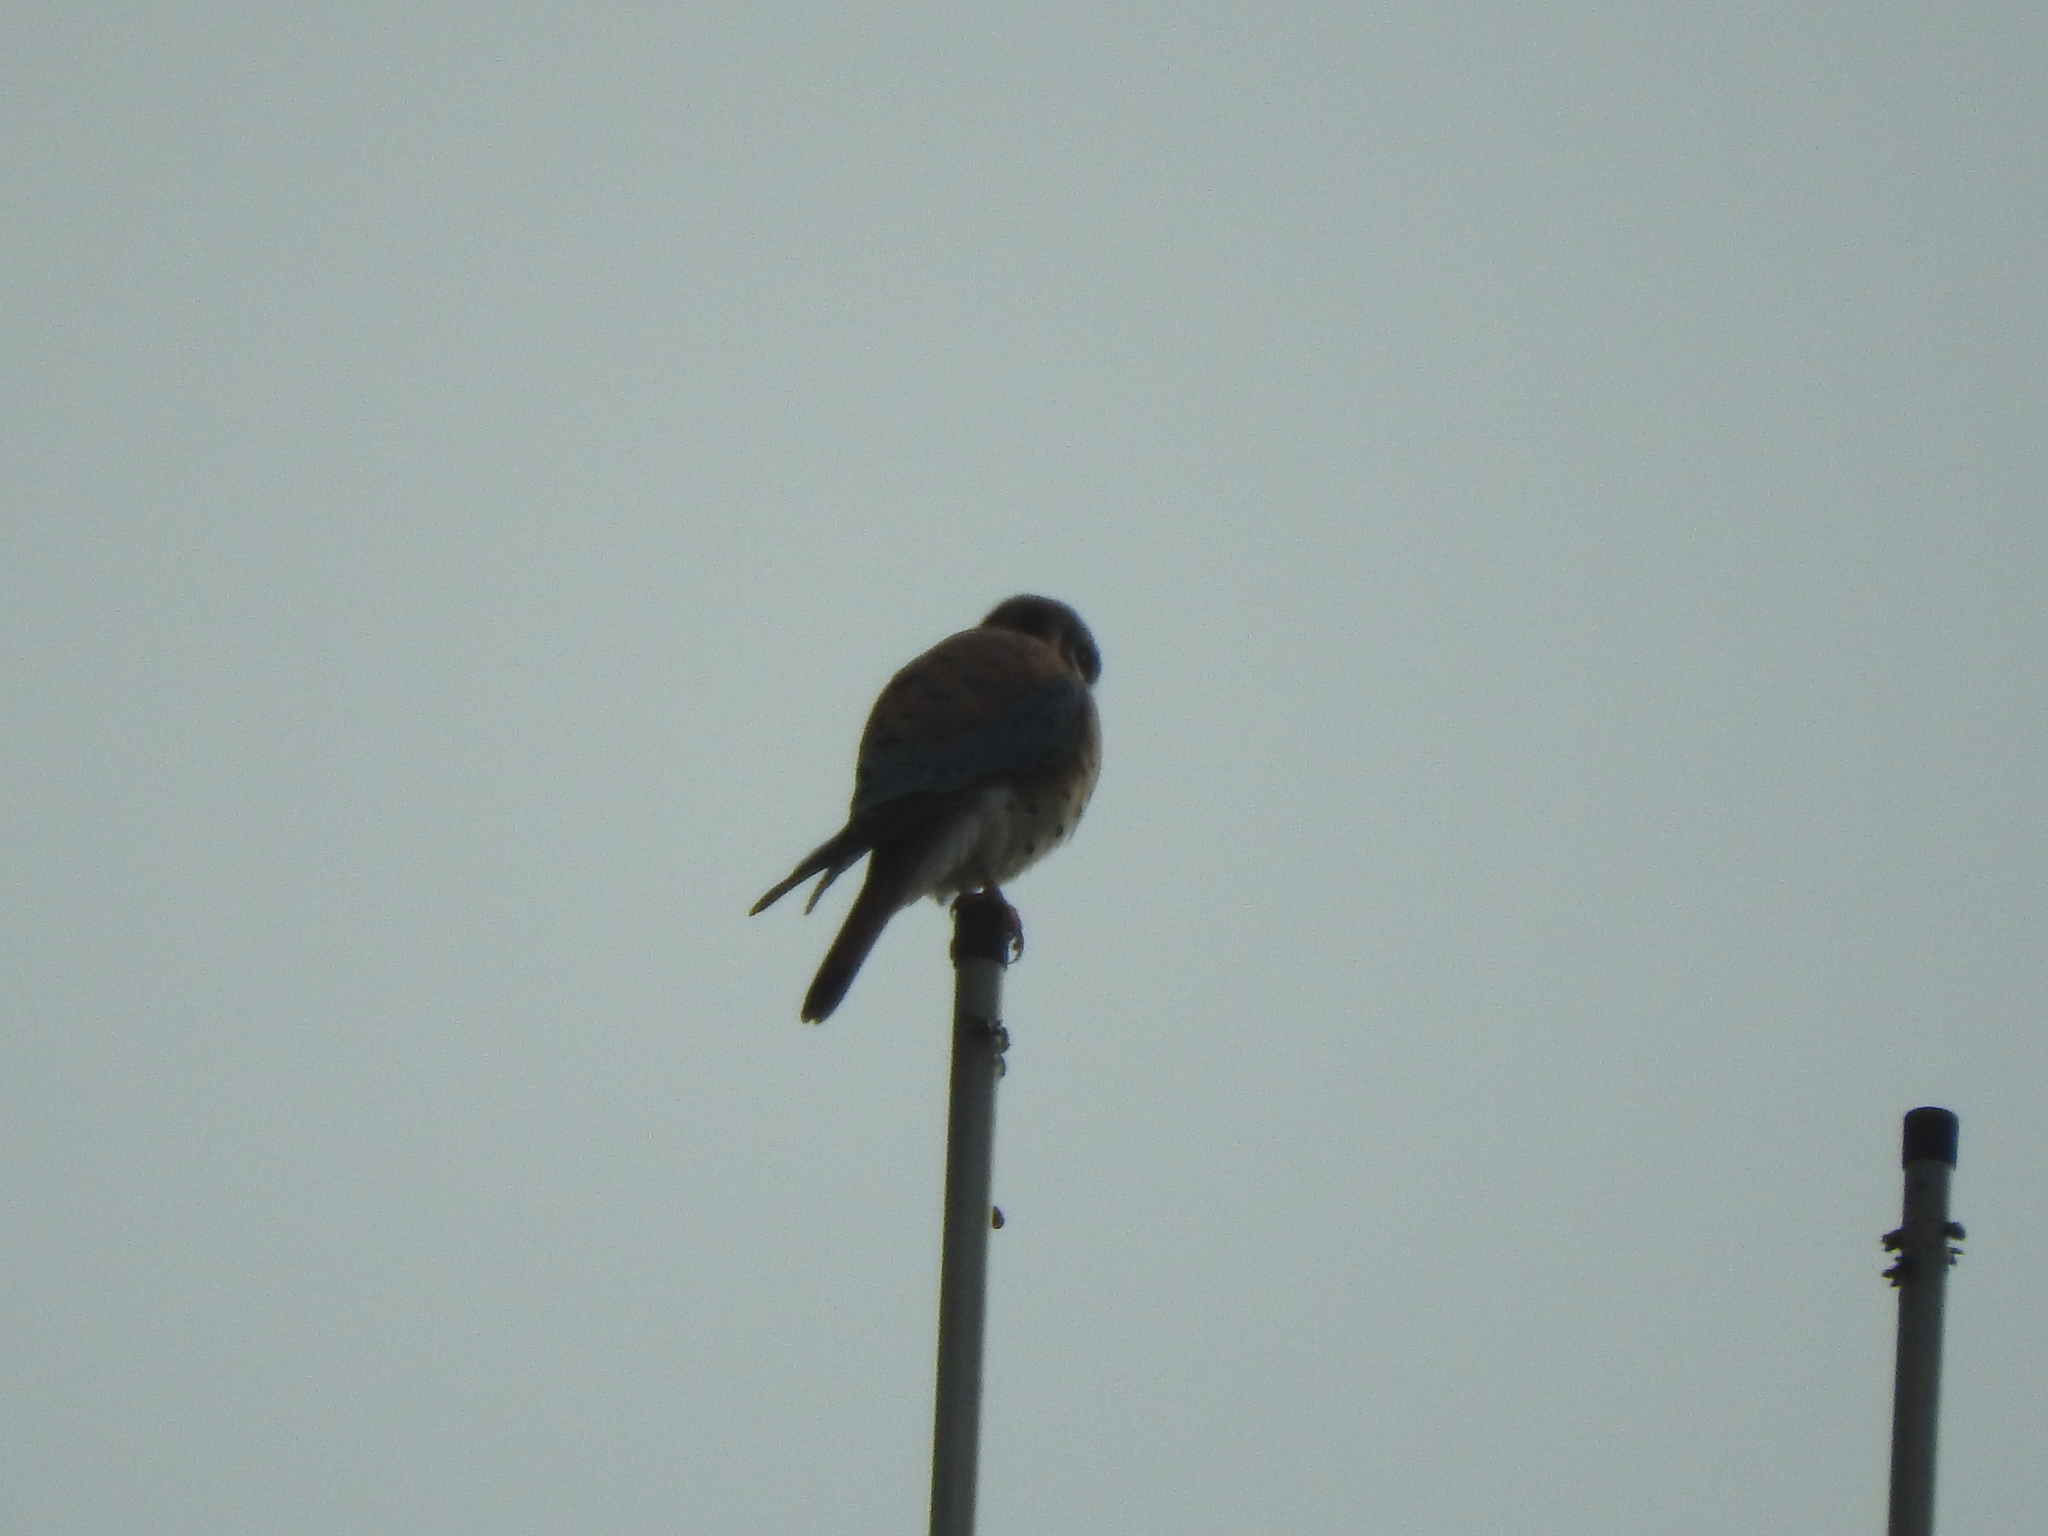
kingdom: Animalia
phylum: Chordata
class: Aves
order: Falconiformes
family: Falconidae
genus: Falco
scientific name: Falco sparverius
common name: American kestrel
